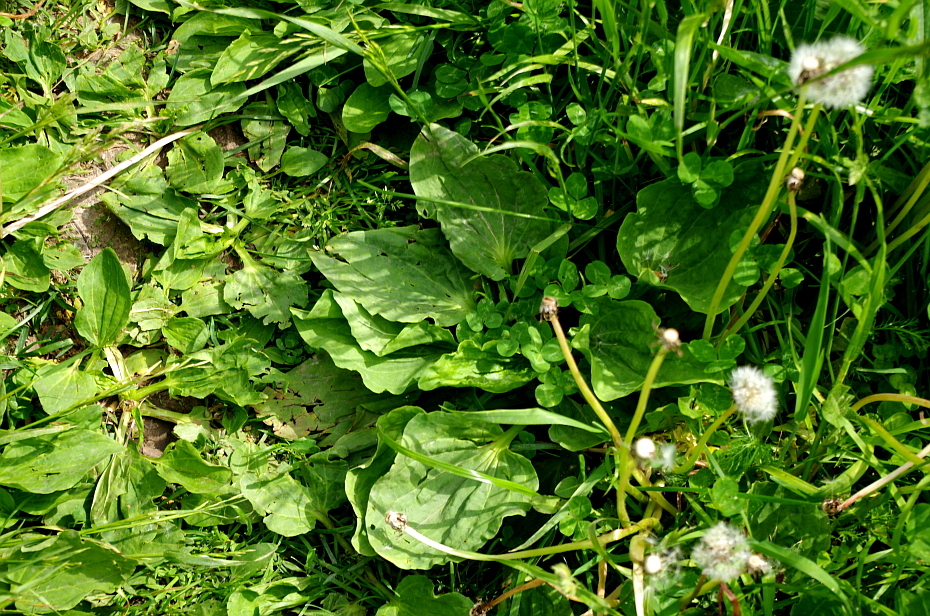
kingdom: Plantae
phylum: Tracheophyta
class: Magnoliopsida
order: Lamiales
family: Plantaginaceae
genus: Plantago
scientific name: Plantago major
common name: Common plantain
